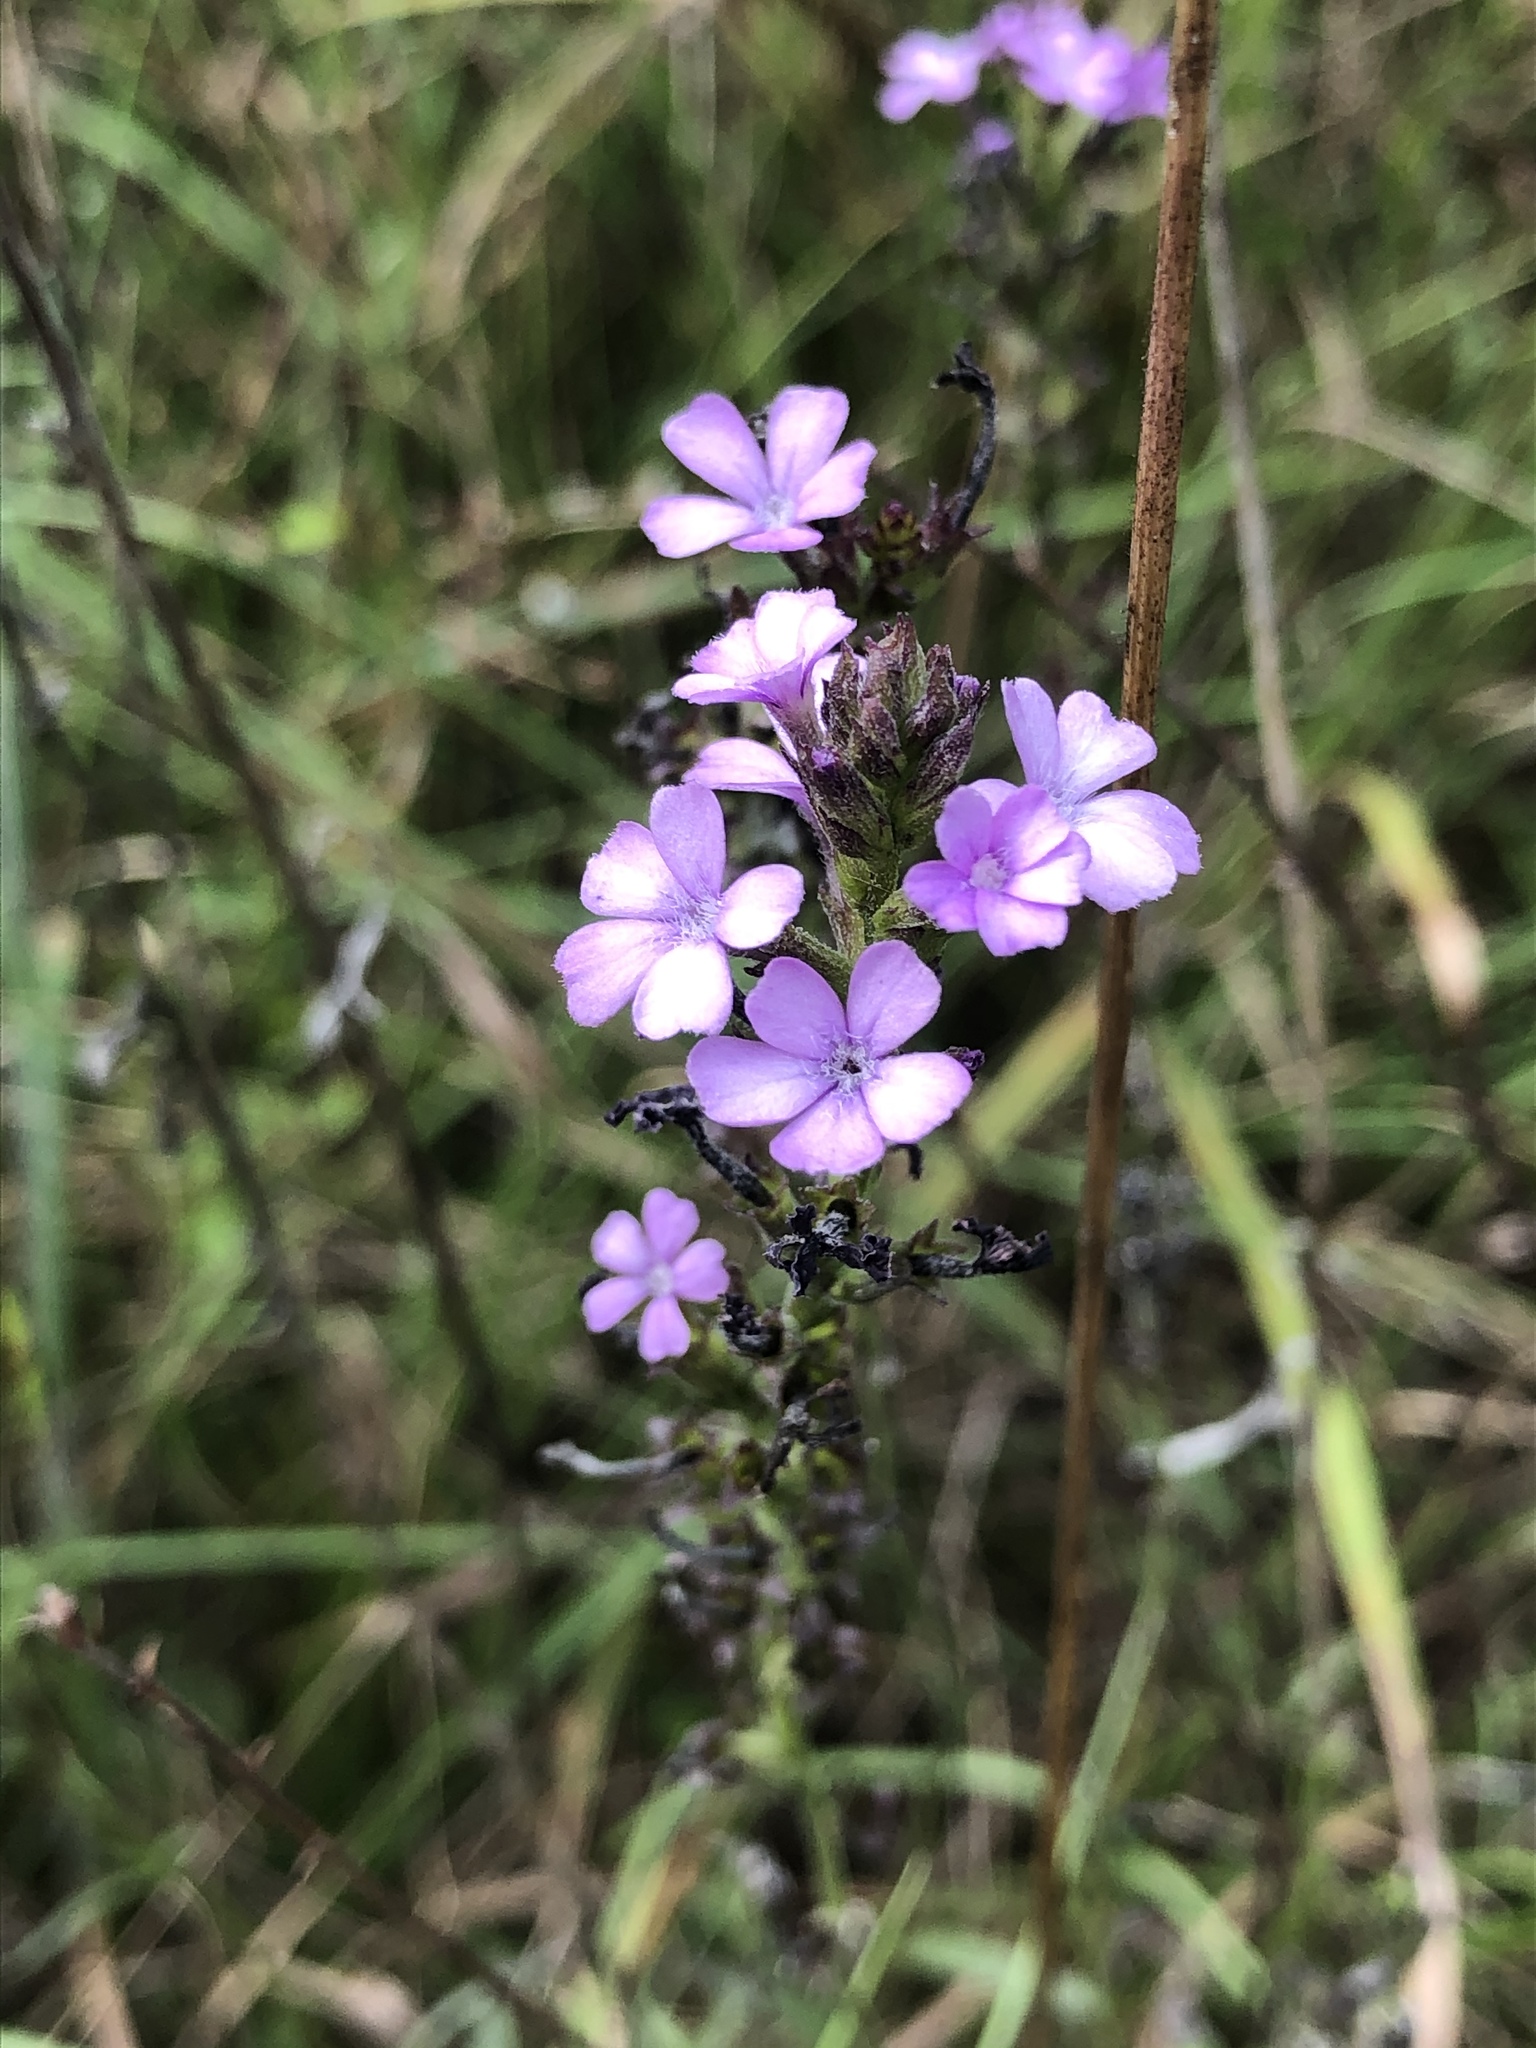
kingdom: Plantae
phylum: Tracheophyta
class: Magnoliopsida
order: Lamiales
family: Orobanchaceae
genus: Buchnera
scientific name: Buchnera floridana
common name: Florida bluehearts
